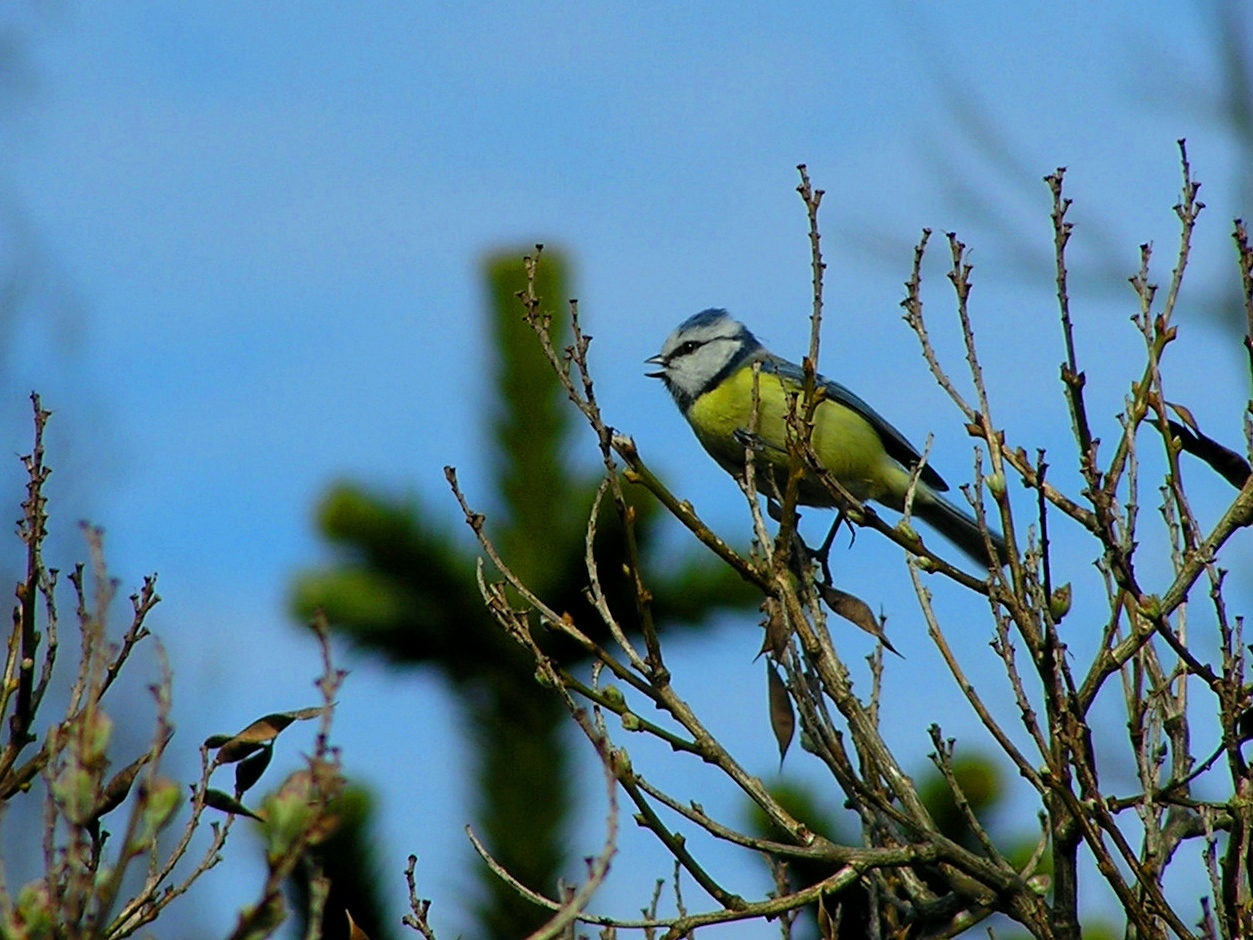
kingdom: Animalia
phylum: Chordata
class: Aves
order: Passeriformes
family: Paridae
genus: Cyanistes
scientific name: Cyanistes caeruleus
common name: Eurasian blue tit
